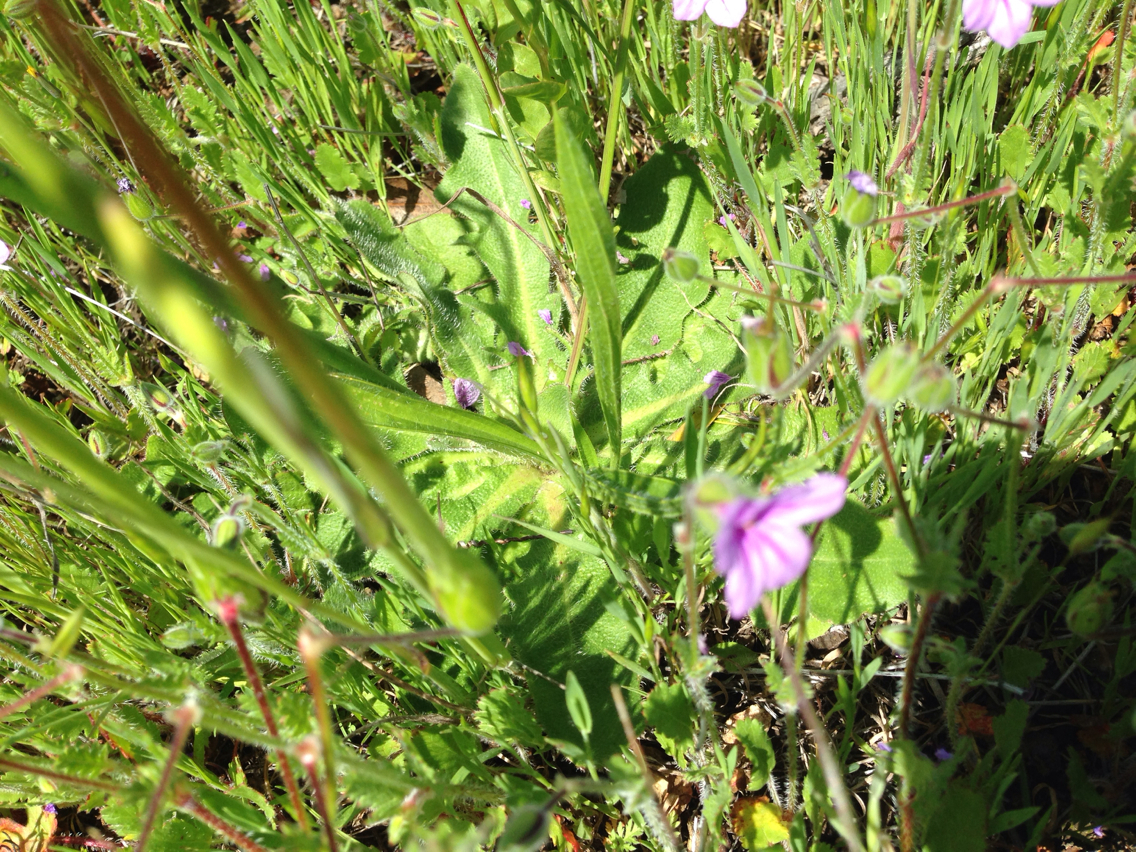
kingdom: Plantae
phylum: Tracheophyta
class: Magnoliopsida
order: Asterales
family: Asteraceae
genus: Hypochaeris
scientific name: Hypochaeris radicata
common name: Flatweed
